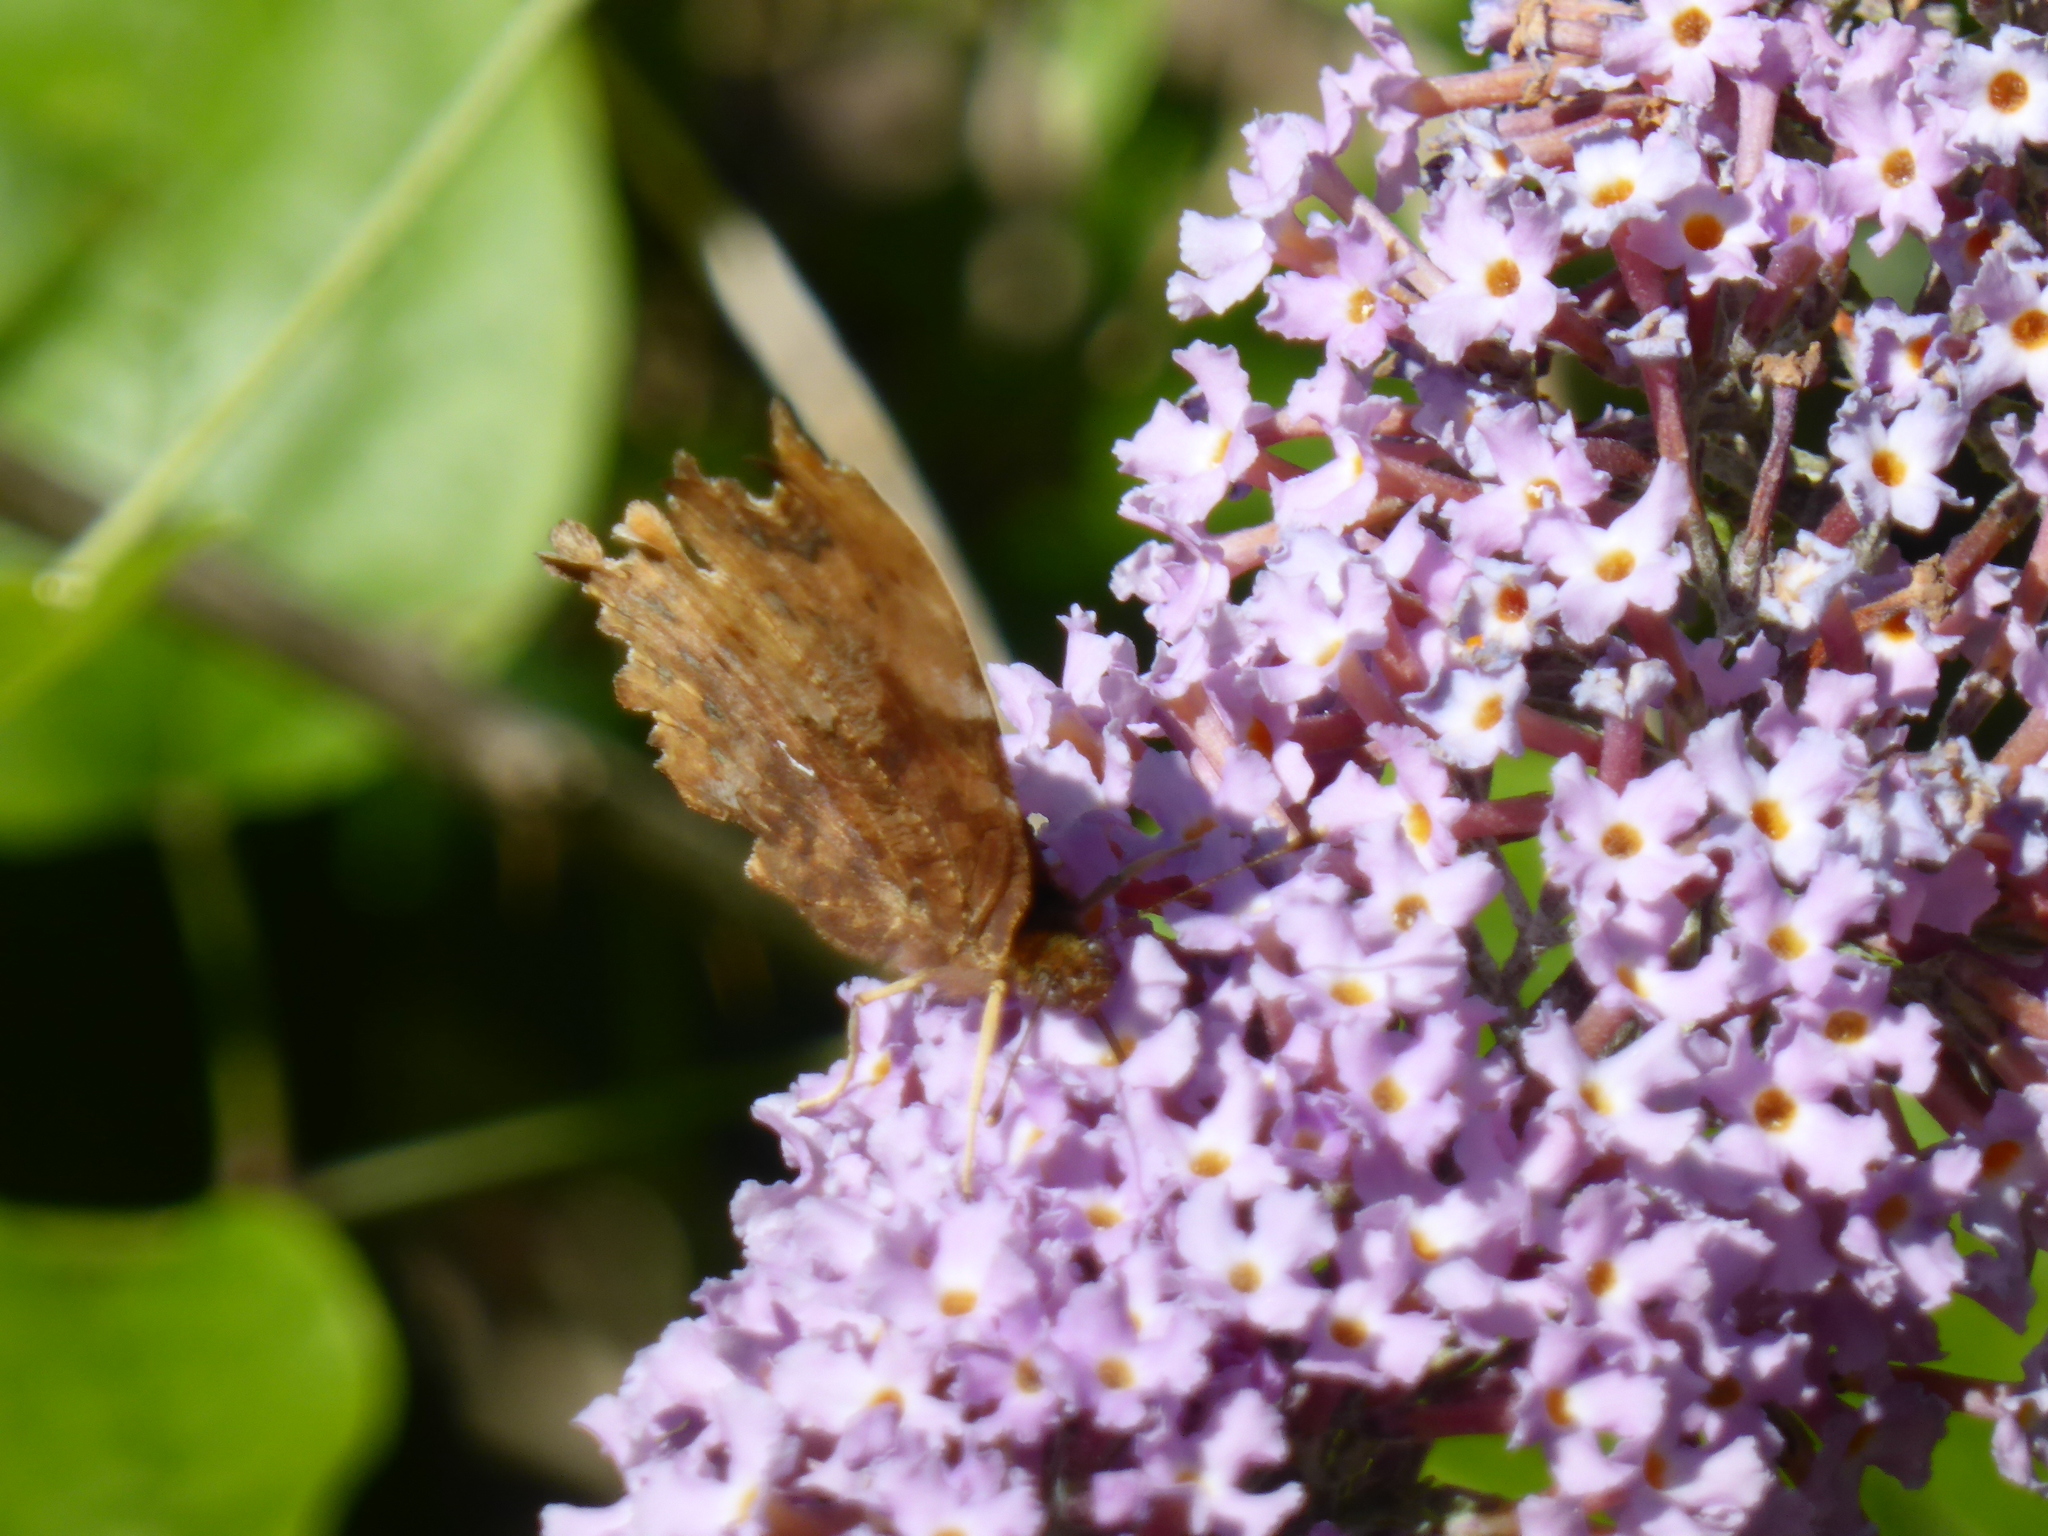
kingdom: Animalia
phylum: Arthropoda
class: Insecta
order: Lepidoptera
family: Nymphalidae
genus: Polygonia
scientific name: Polygonia c-album
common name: Comma
